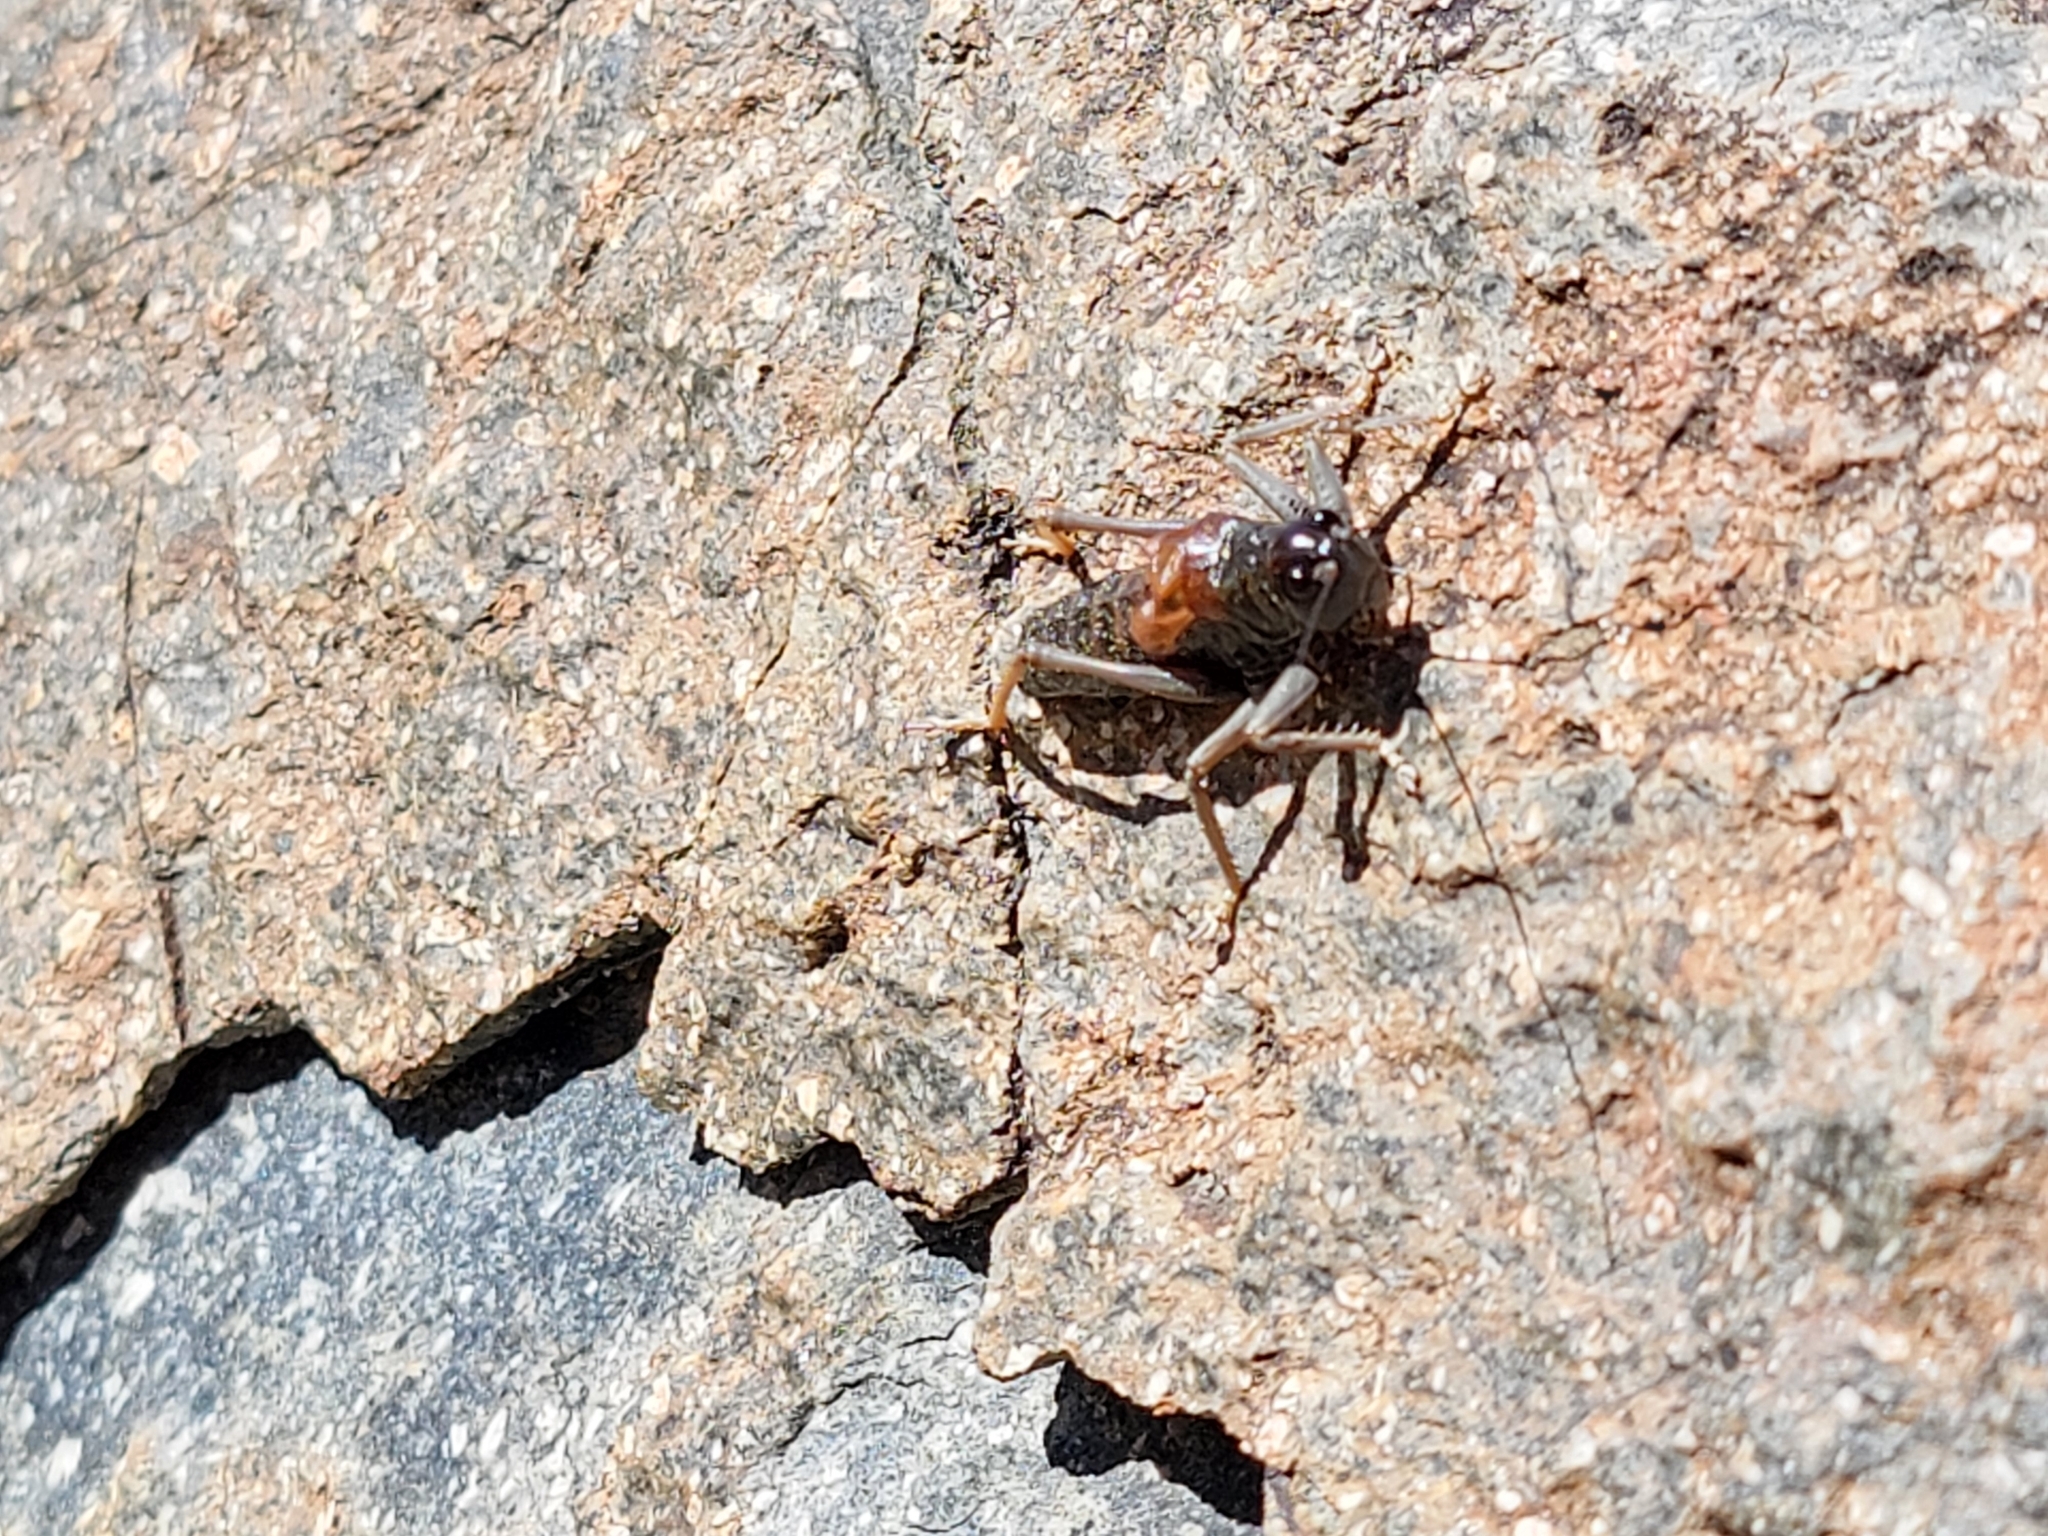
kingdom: Animalia
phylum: Arthropoda
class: Insecta
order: Orthoptera
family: Tettigoniidae
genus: Acrodectes
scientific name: Acrodectes philopagus
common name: Alpine shieldback
